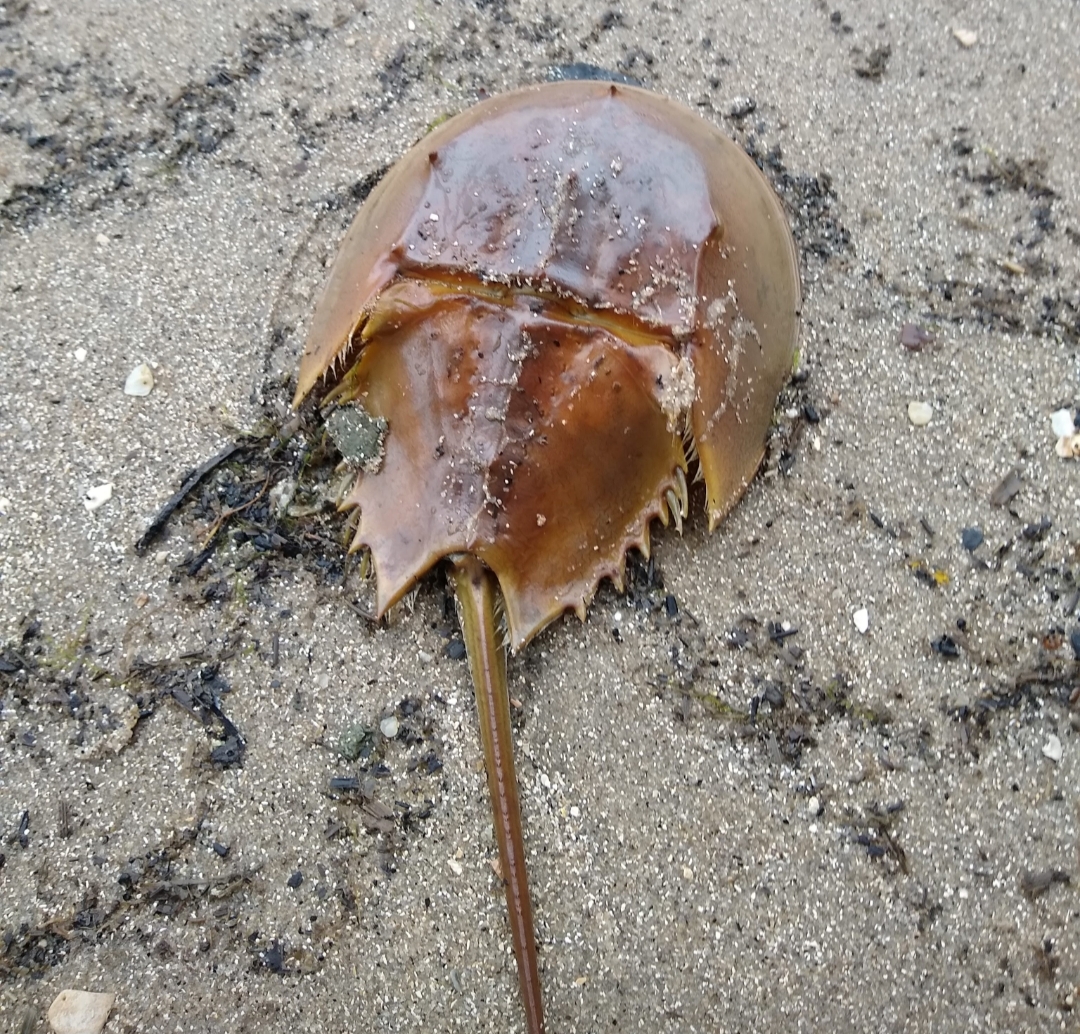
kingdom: Animalia
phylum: Arthropoda
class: Merostomata
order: Xiphosurida
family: Limulidae
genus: Limulus
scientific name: Limulus polyphemus
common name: Horseshoe crab
